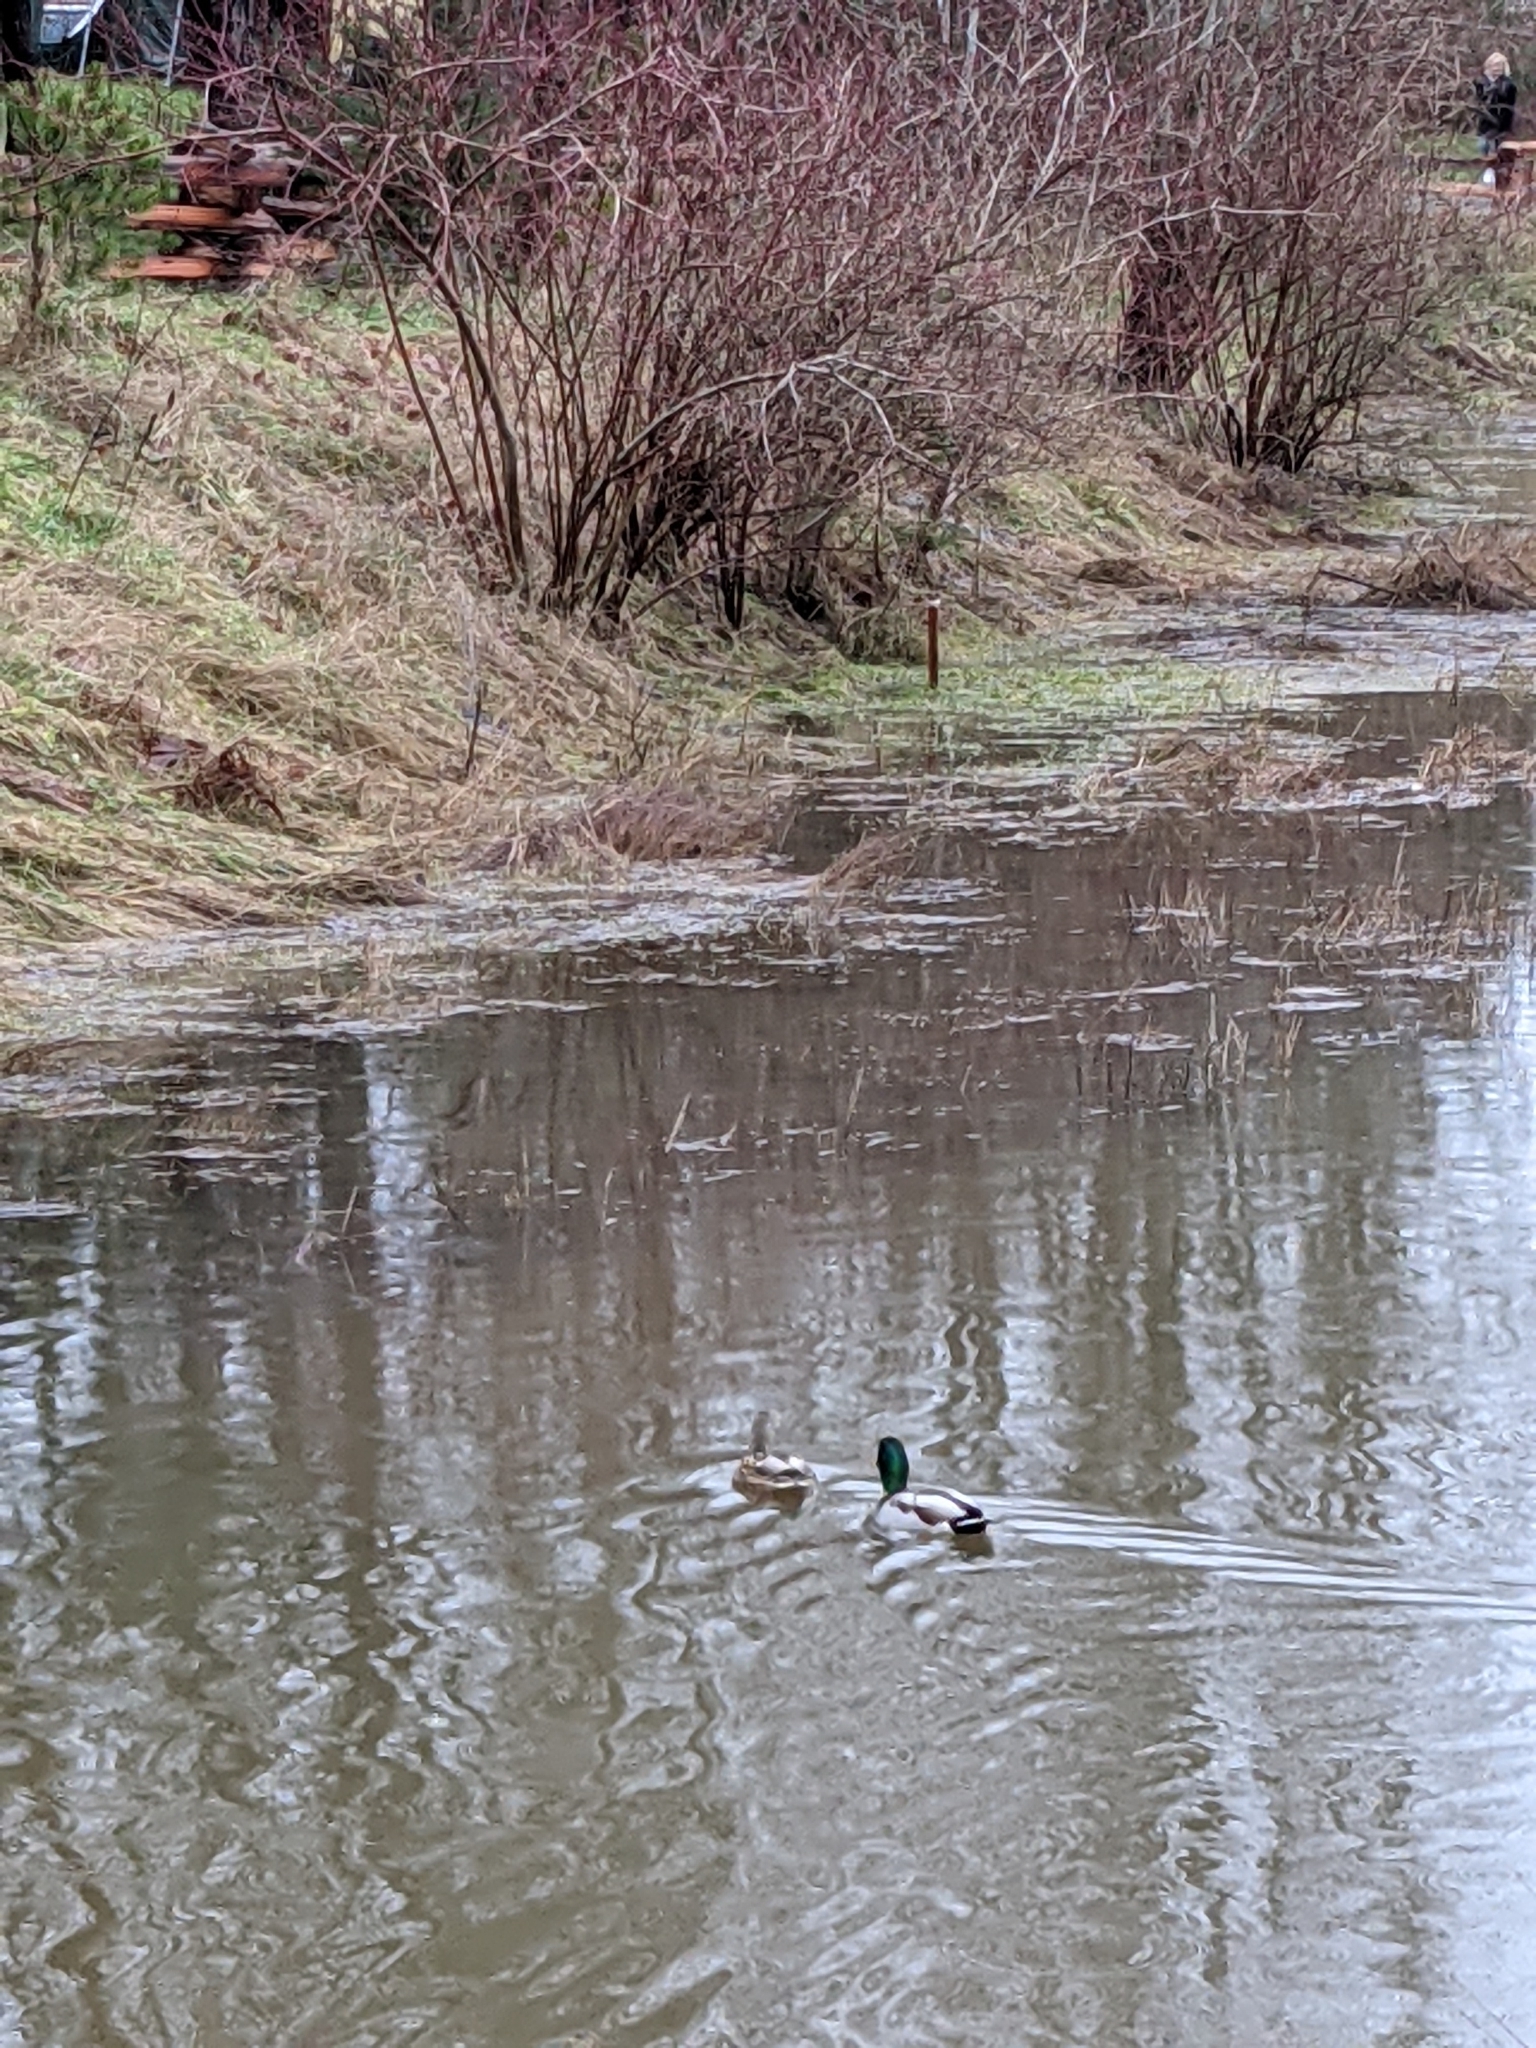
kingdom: Animalia
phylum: Chordata
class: Aves
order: Anseriformes
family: Anatidae
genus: Anas
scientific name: Anas platyrhynchos
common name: Mallard
